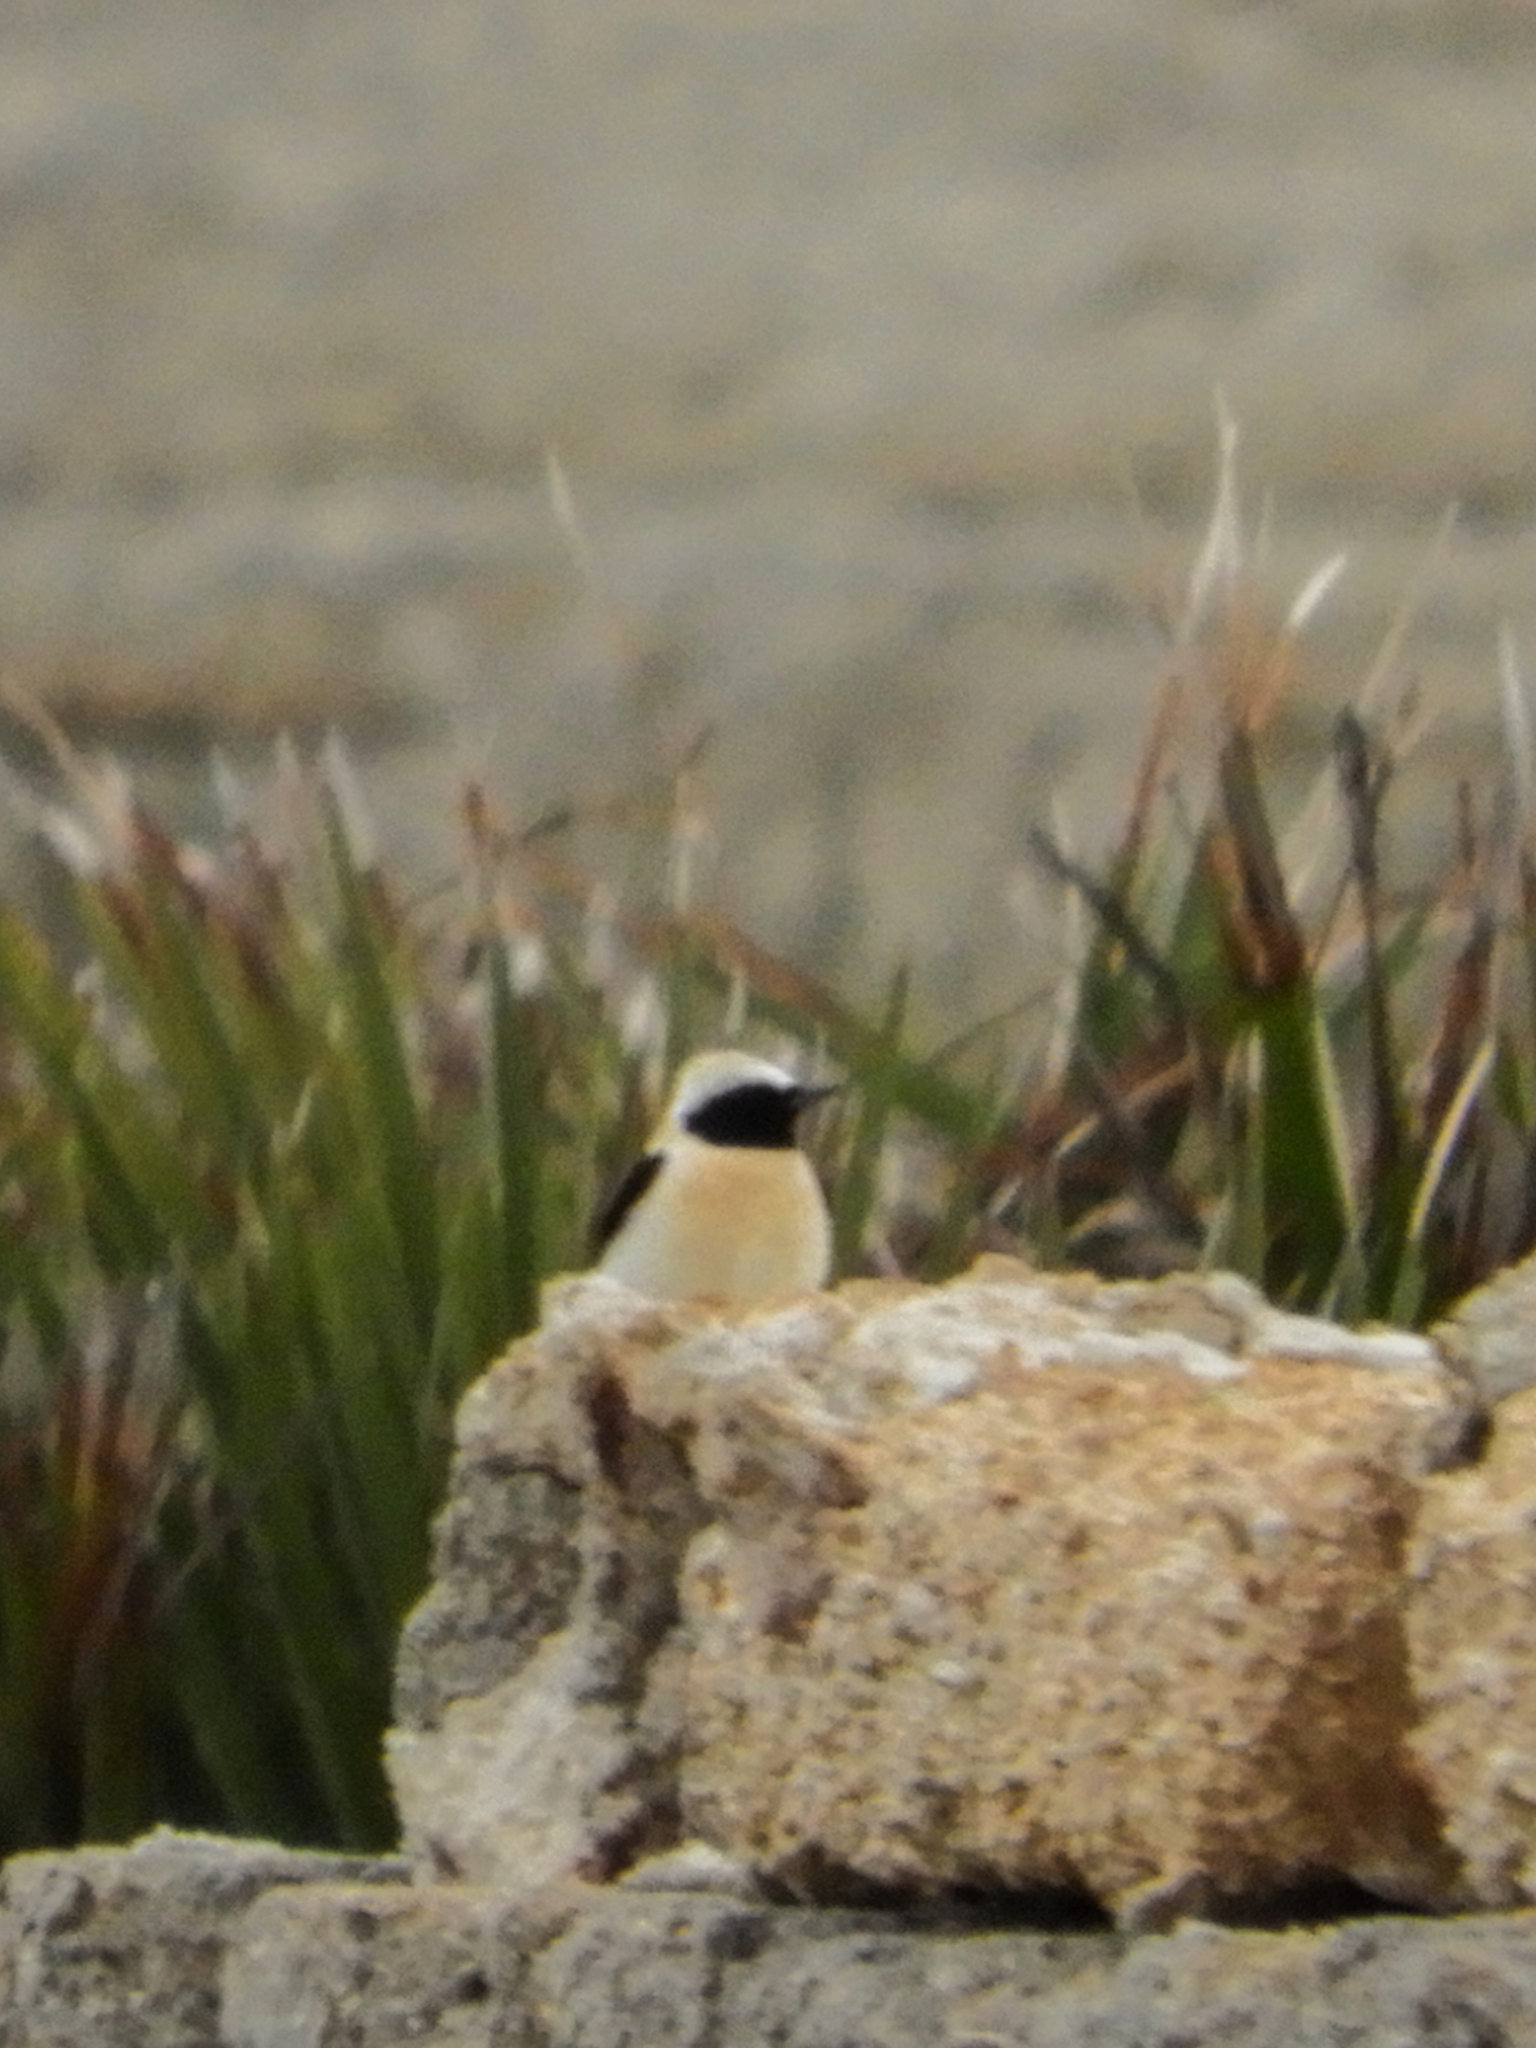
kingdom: Animalia
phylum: Chordata
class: Aves
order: Passeriformes
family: Muscicapidae
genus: Oenanthe
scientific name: Oenanthe hispanica
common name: Black-eared wheatear
